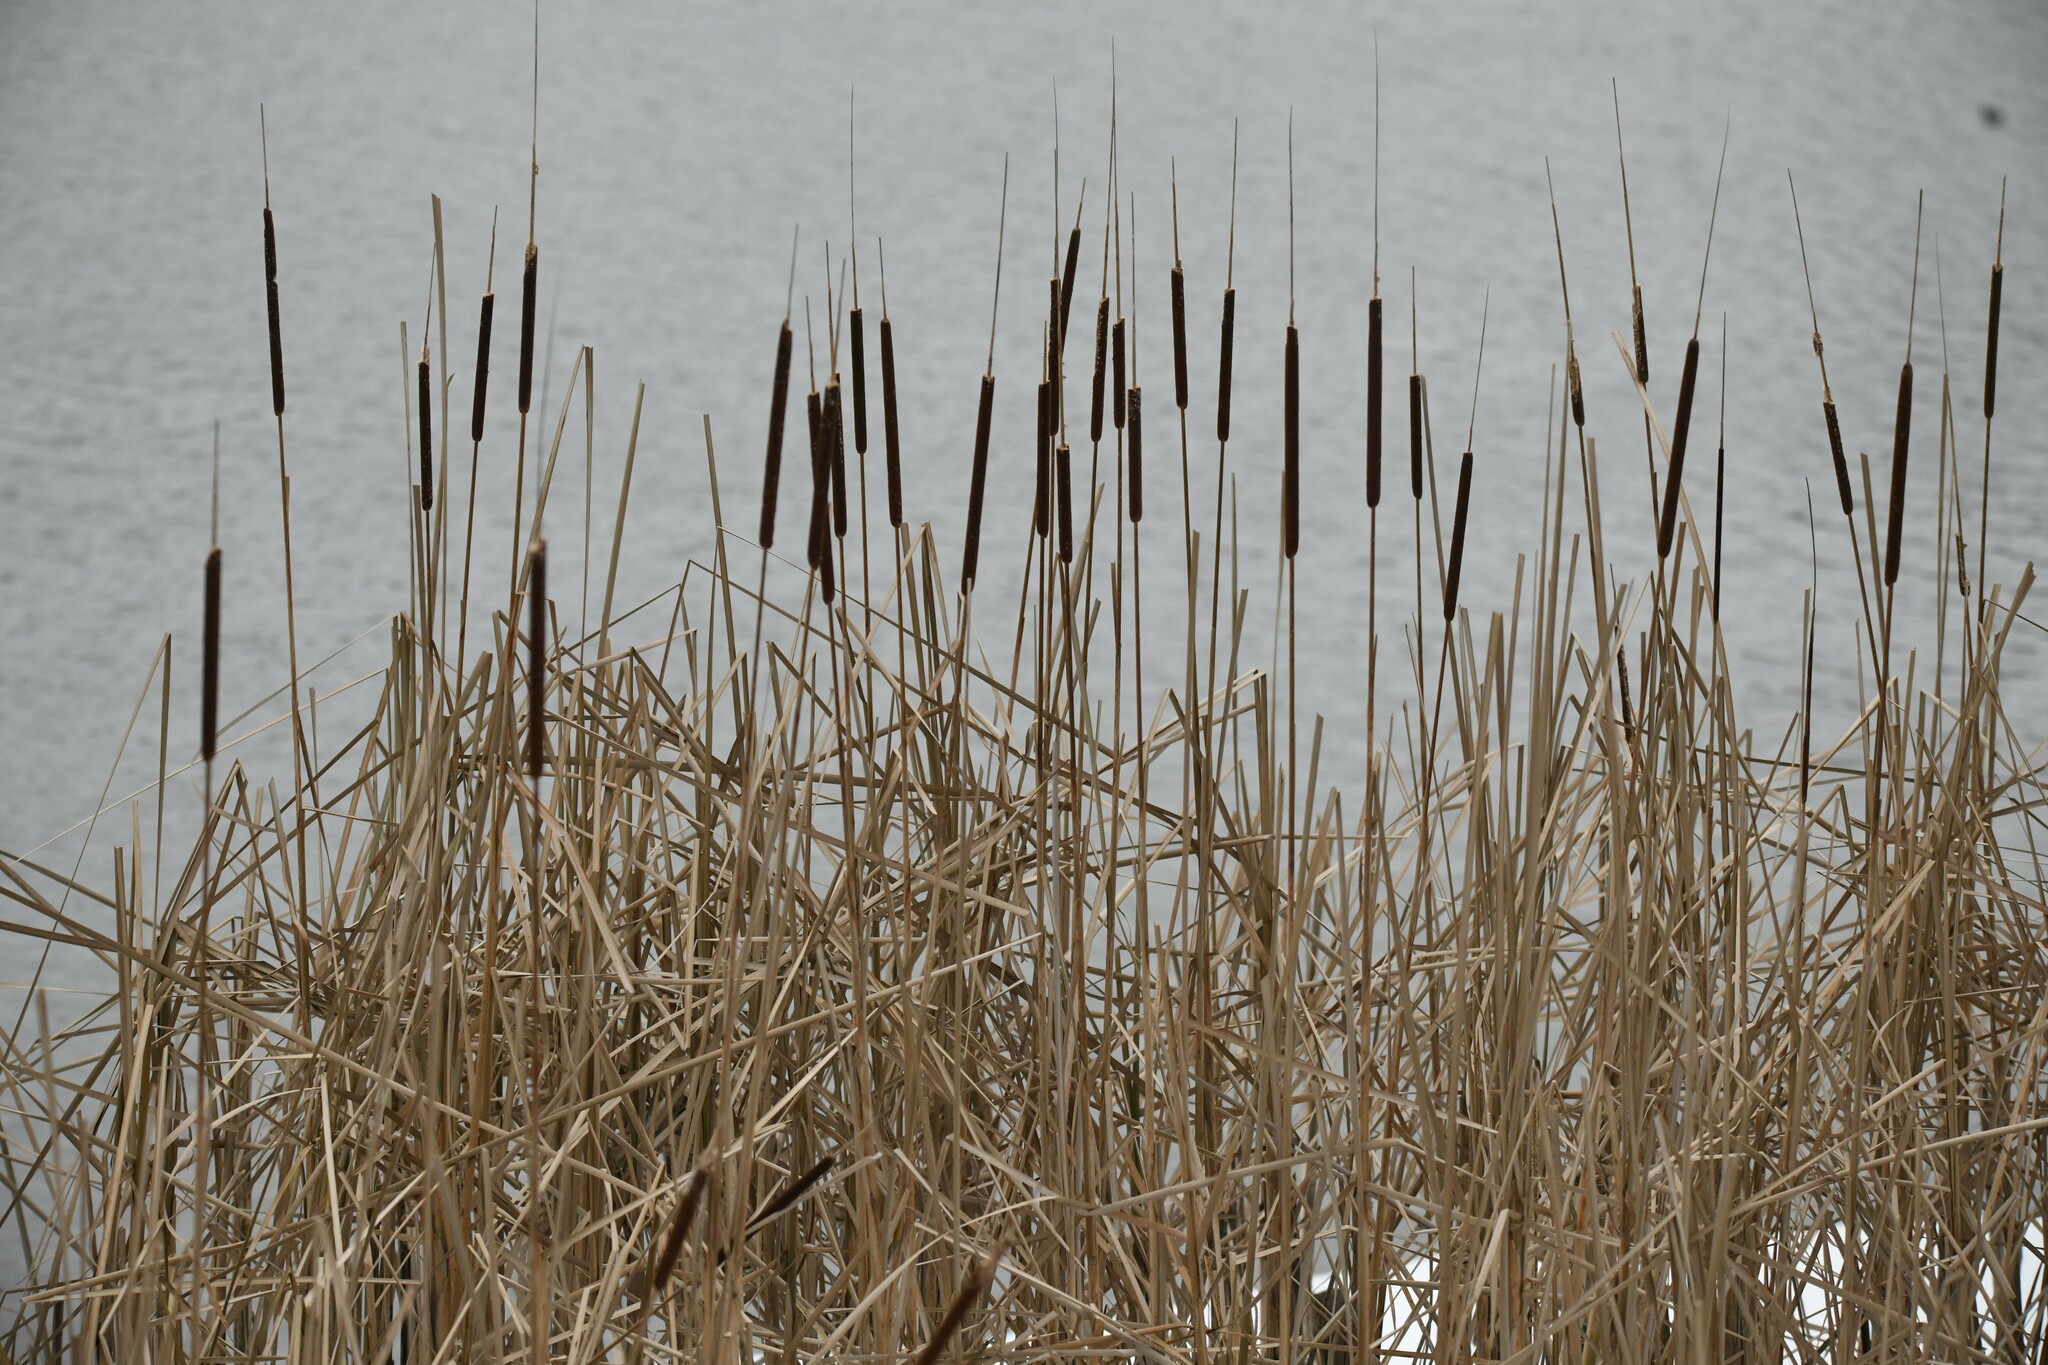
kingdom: Plantae
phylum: Tracheophyta
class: Liliopsida
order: Poales
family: Typhaceae
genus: Typha
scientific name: Typha angustifolia
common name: Lesser bulrush
